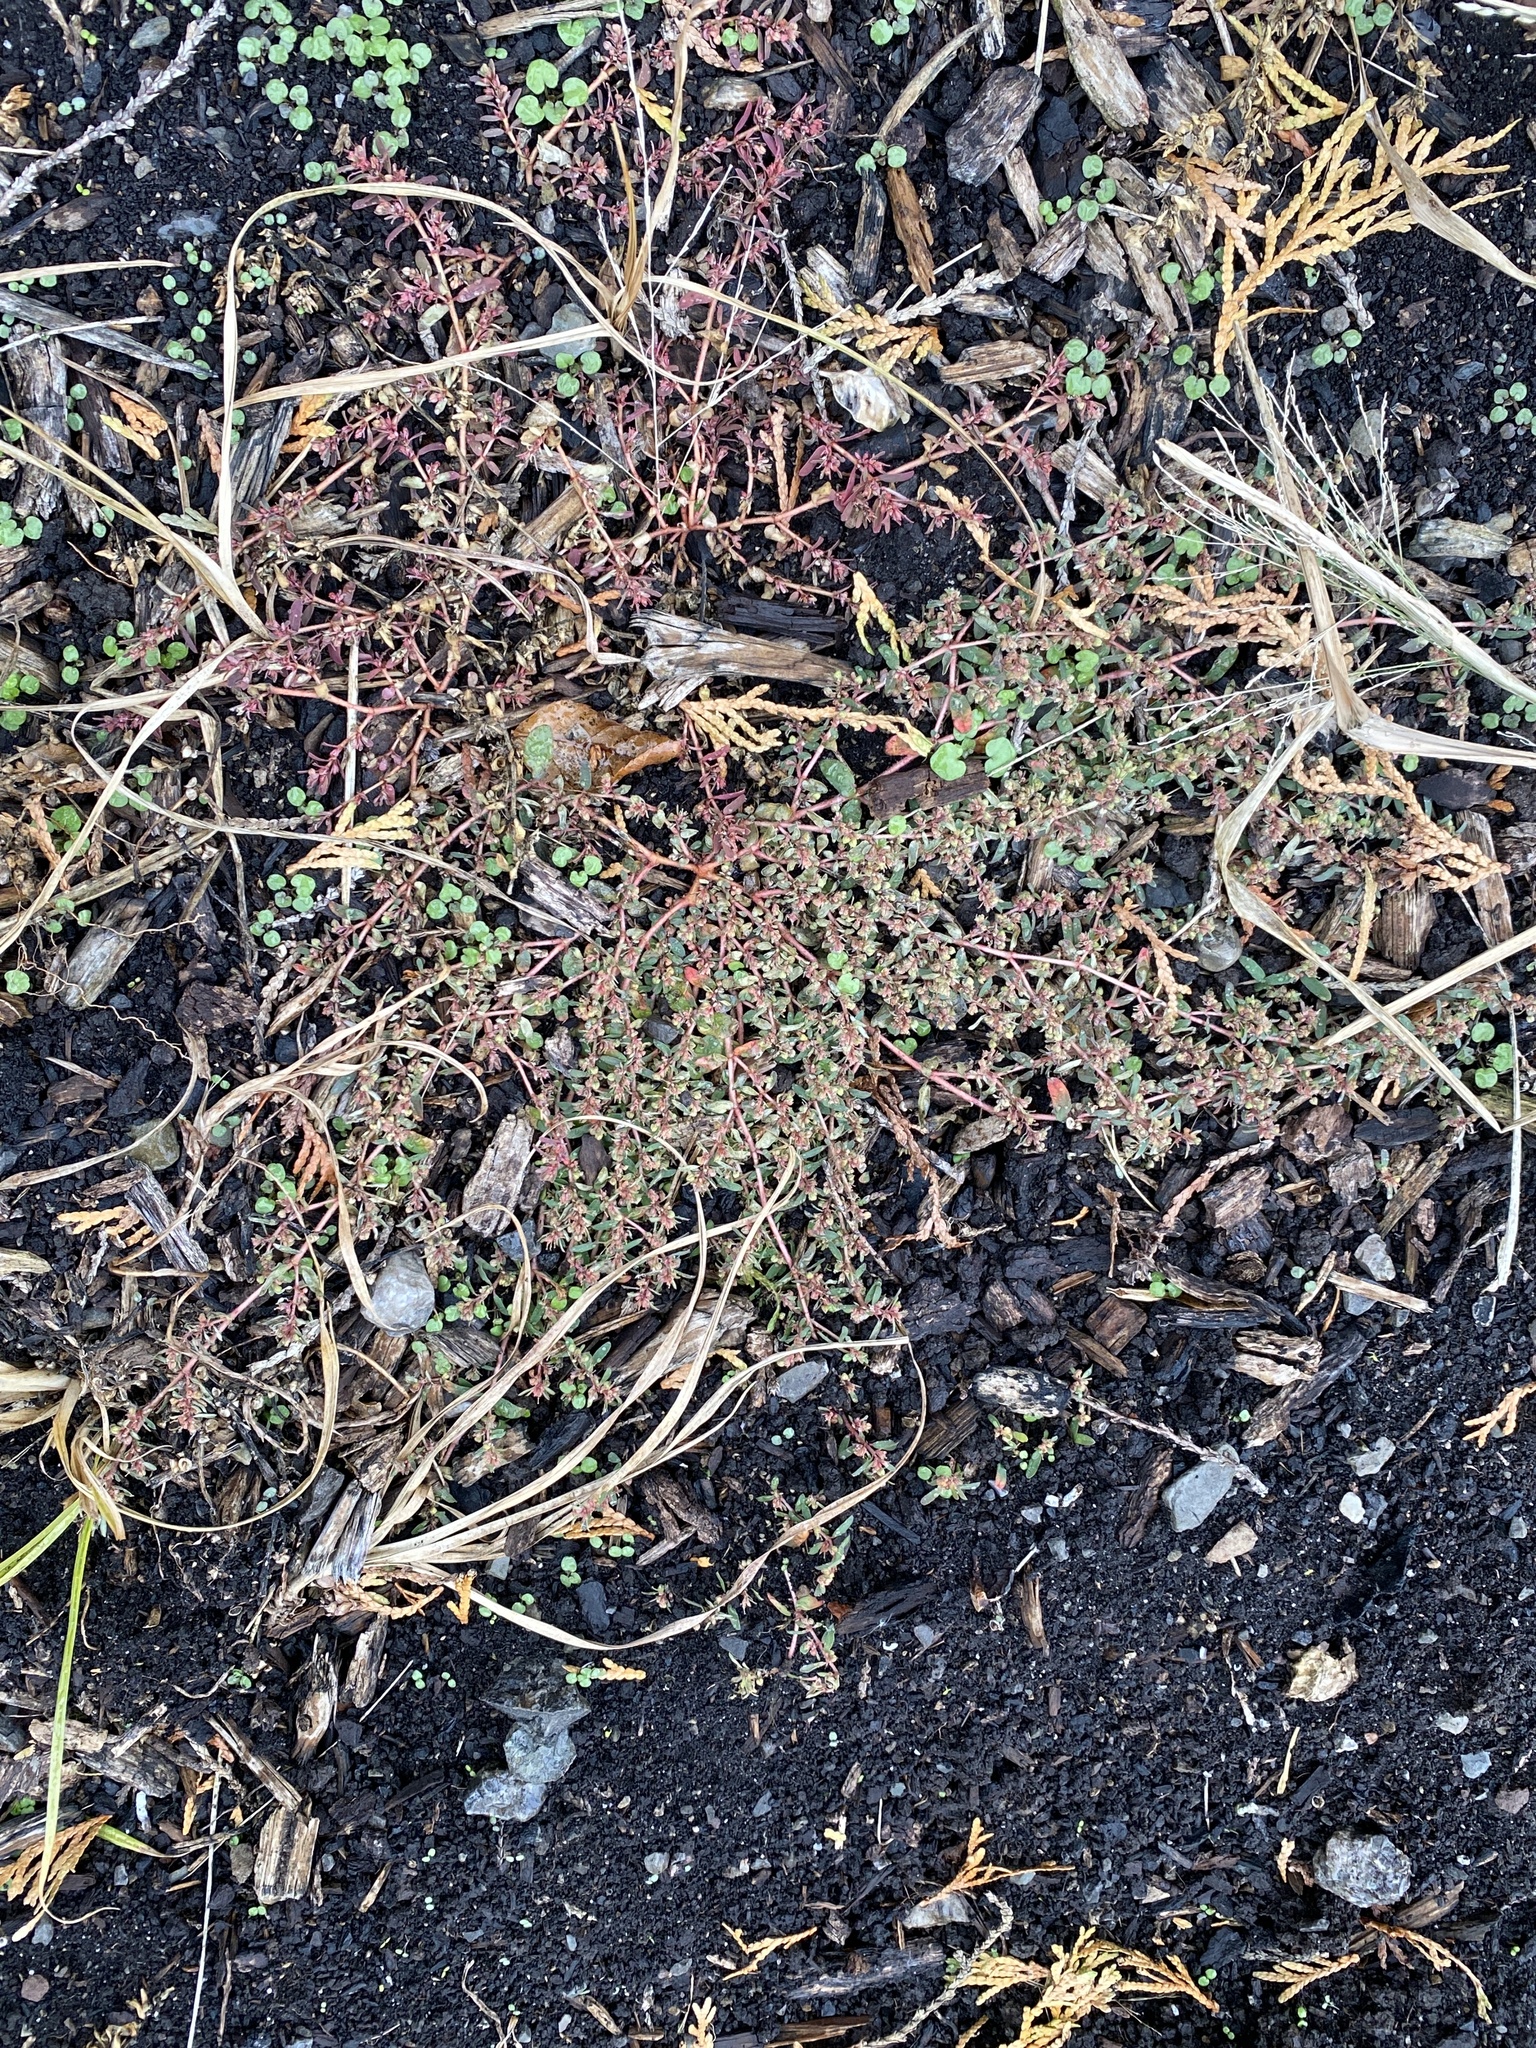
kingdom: Plantae
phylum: Tracheophyta
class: Magnoliopsida
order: Malpighiales
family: Euphorbiaceae
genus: Euphorbia
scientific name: Euphorbia maculata
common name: Spotted spurge
